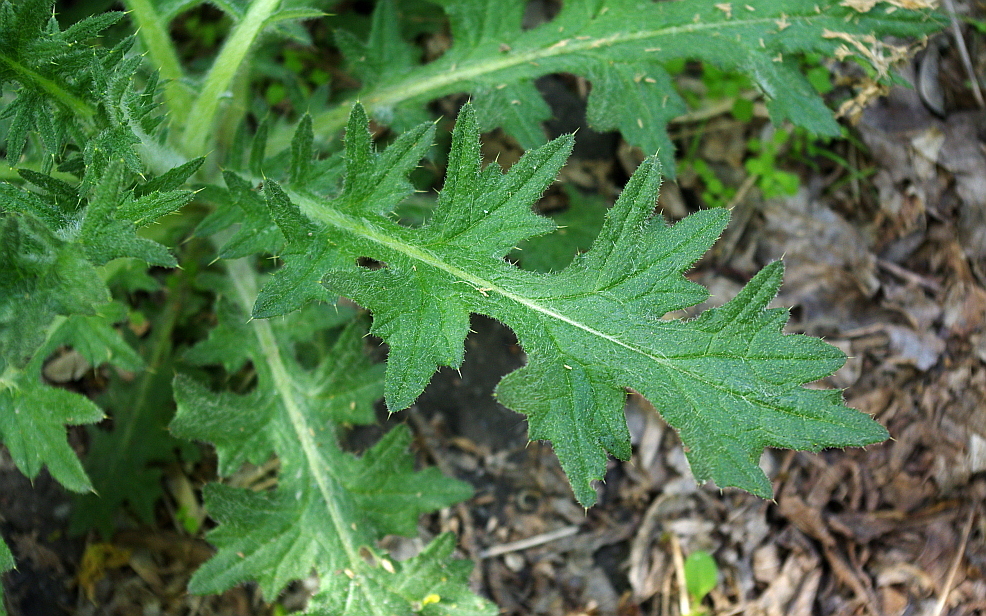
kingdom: Plantae
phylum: Tracheophyta
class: Magnoliopsida
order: Asterales
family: Asteraceae
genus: Cirsium
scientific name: Cirsium vulgare
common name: Bull thistle
